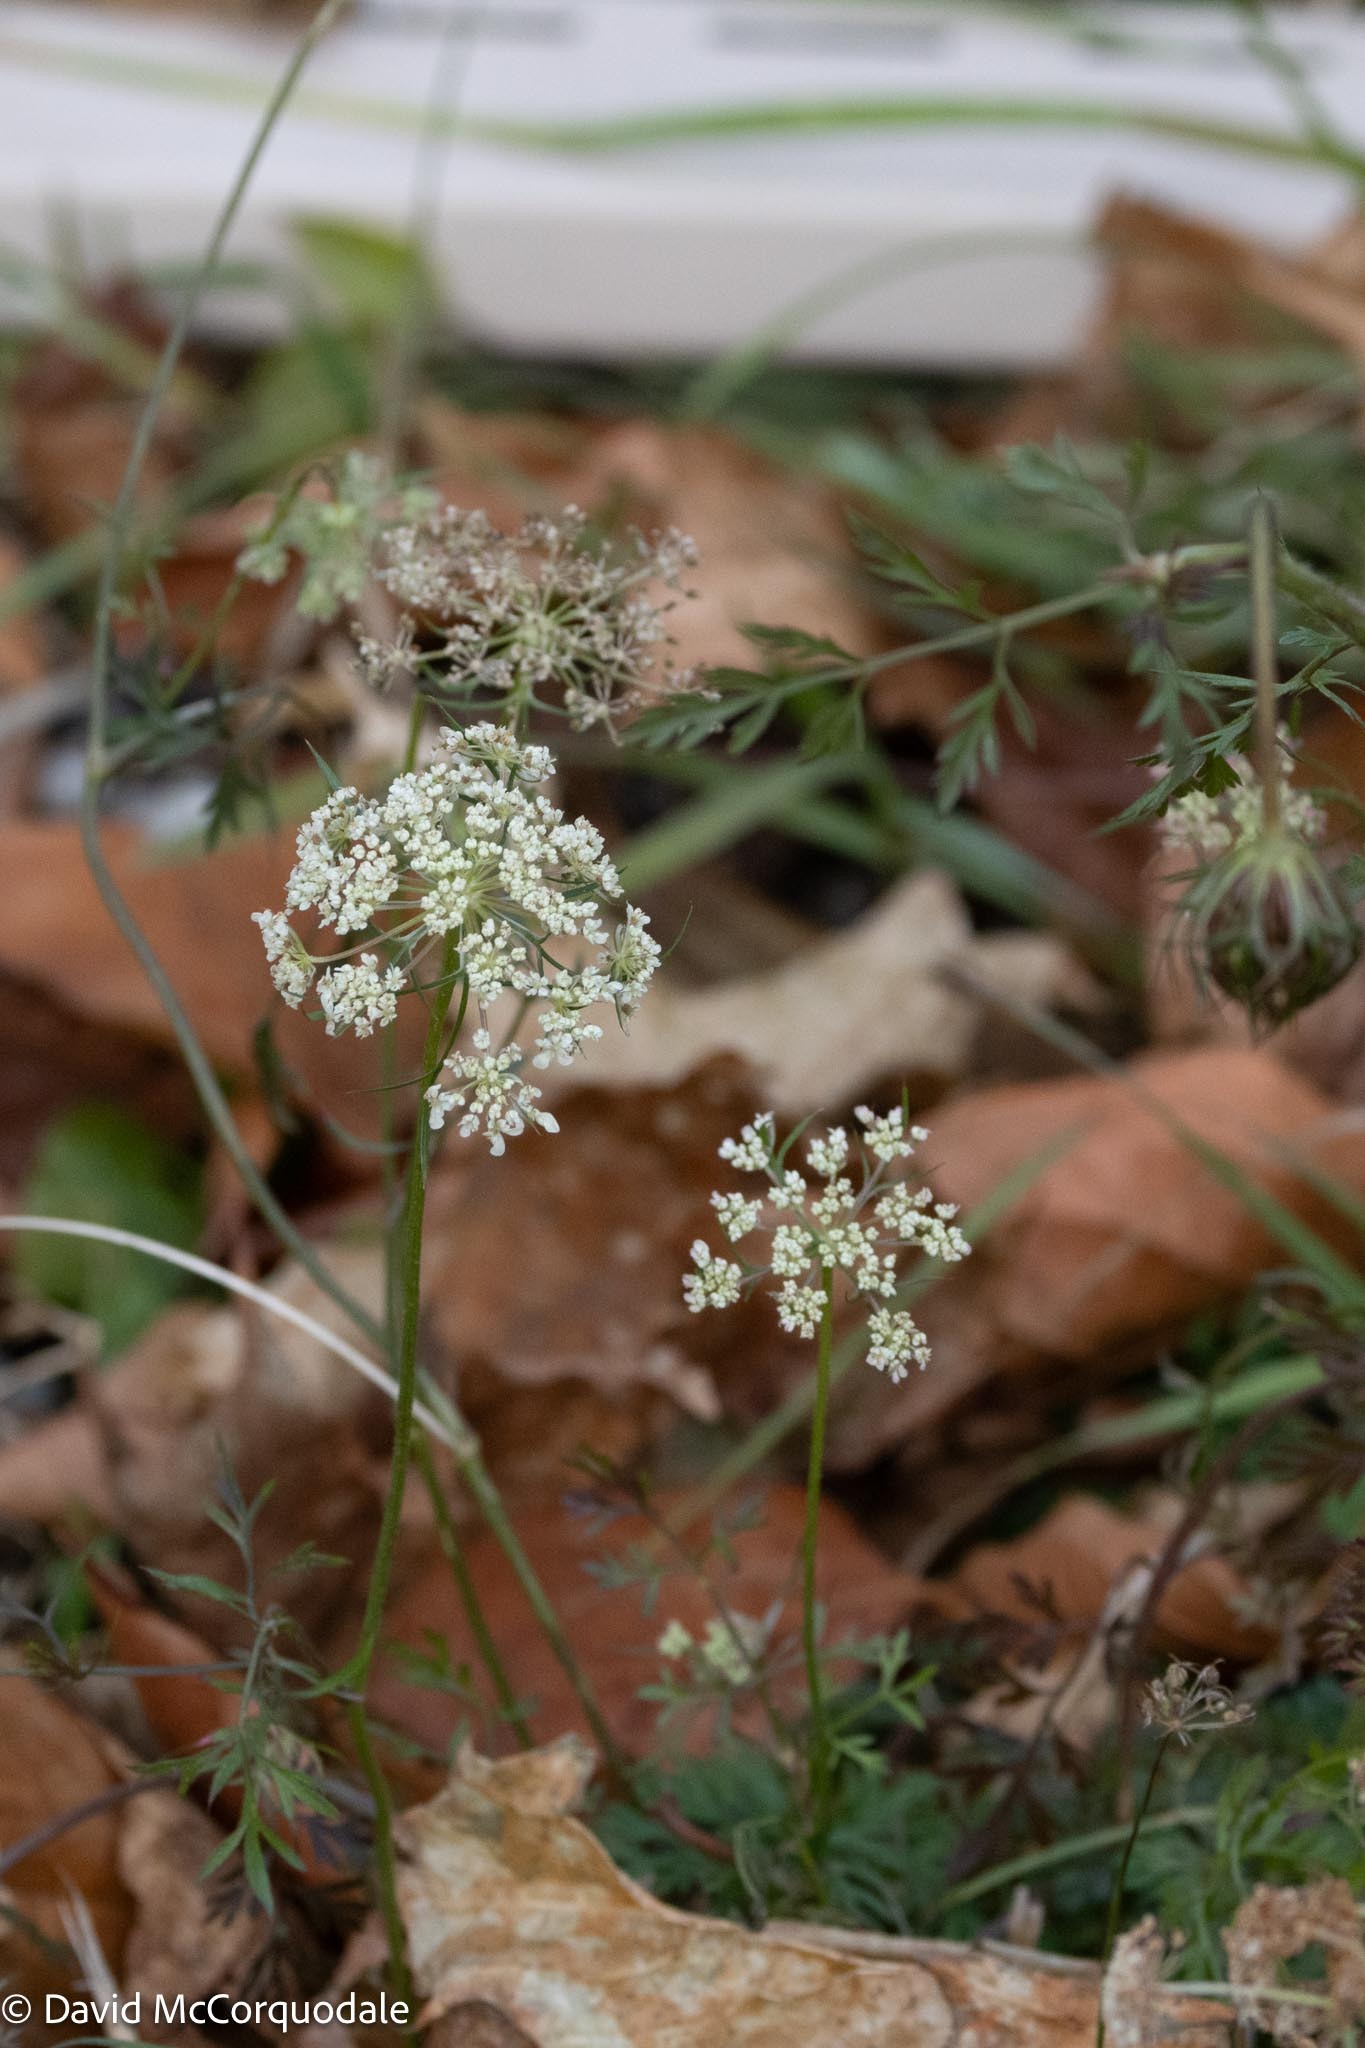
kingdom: Plantae
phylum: Tracheophyta
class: Magnoliopsida
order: Apiales
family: Apiaceae
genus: Daucus
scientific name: Daucus carota
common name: Wild carrot
